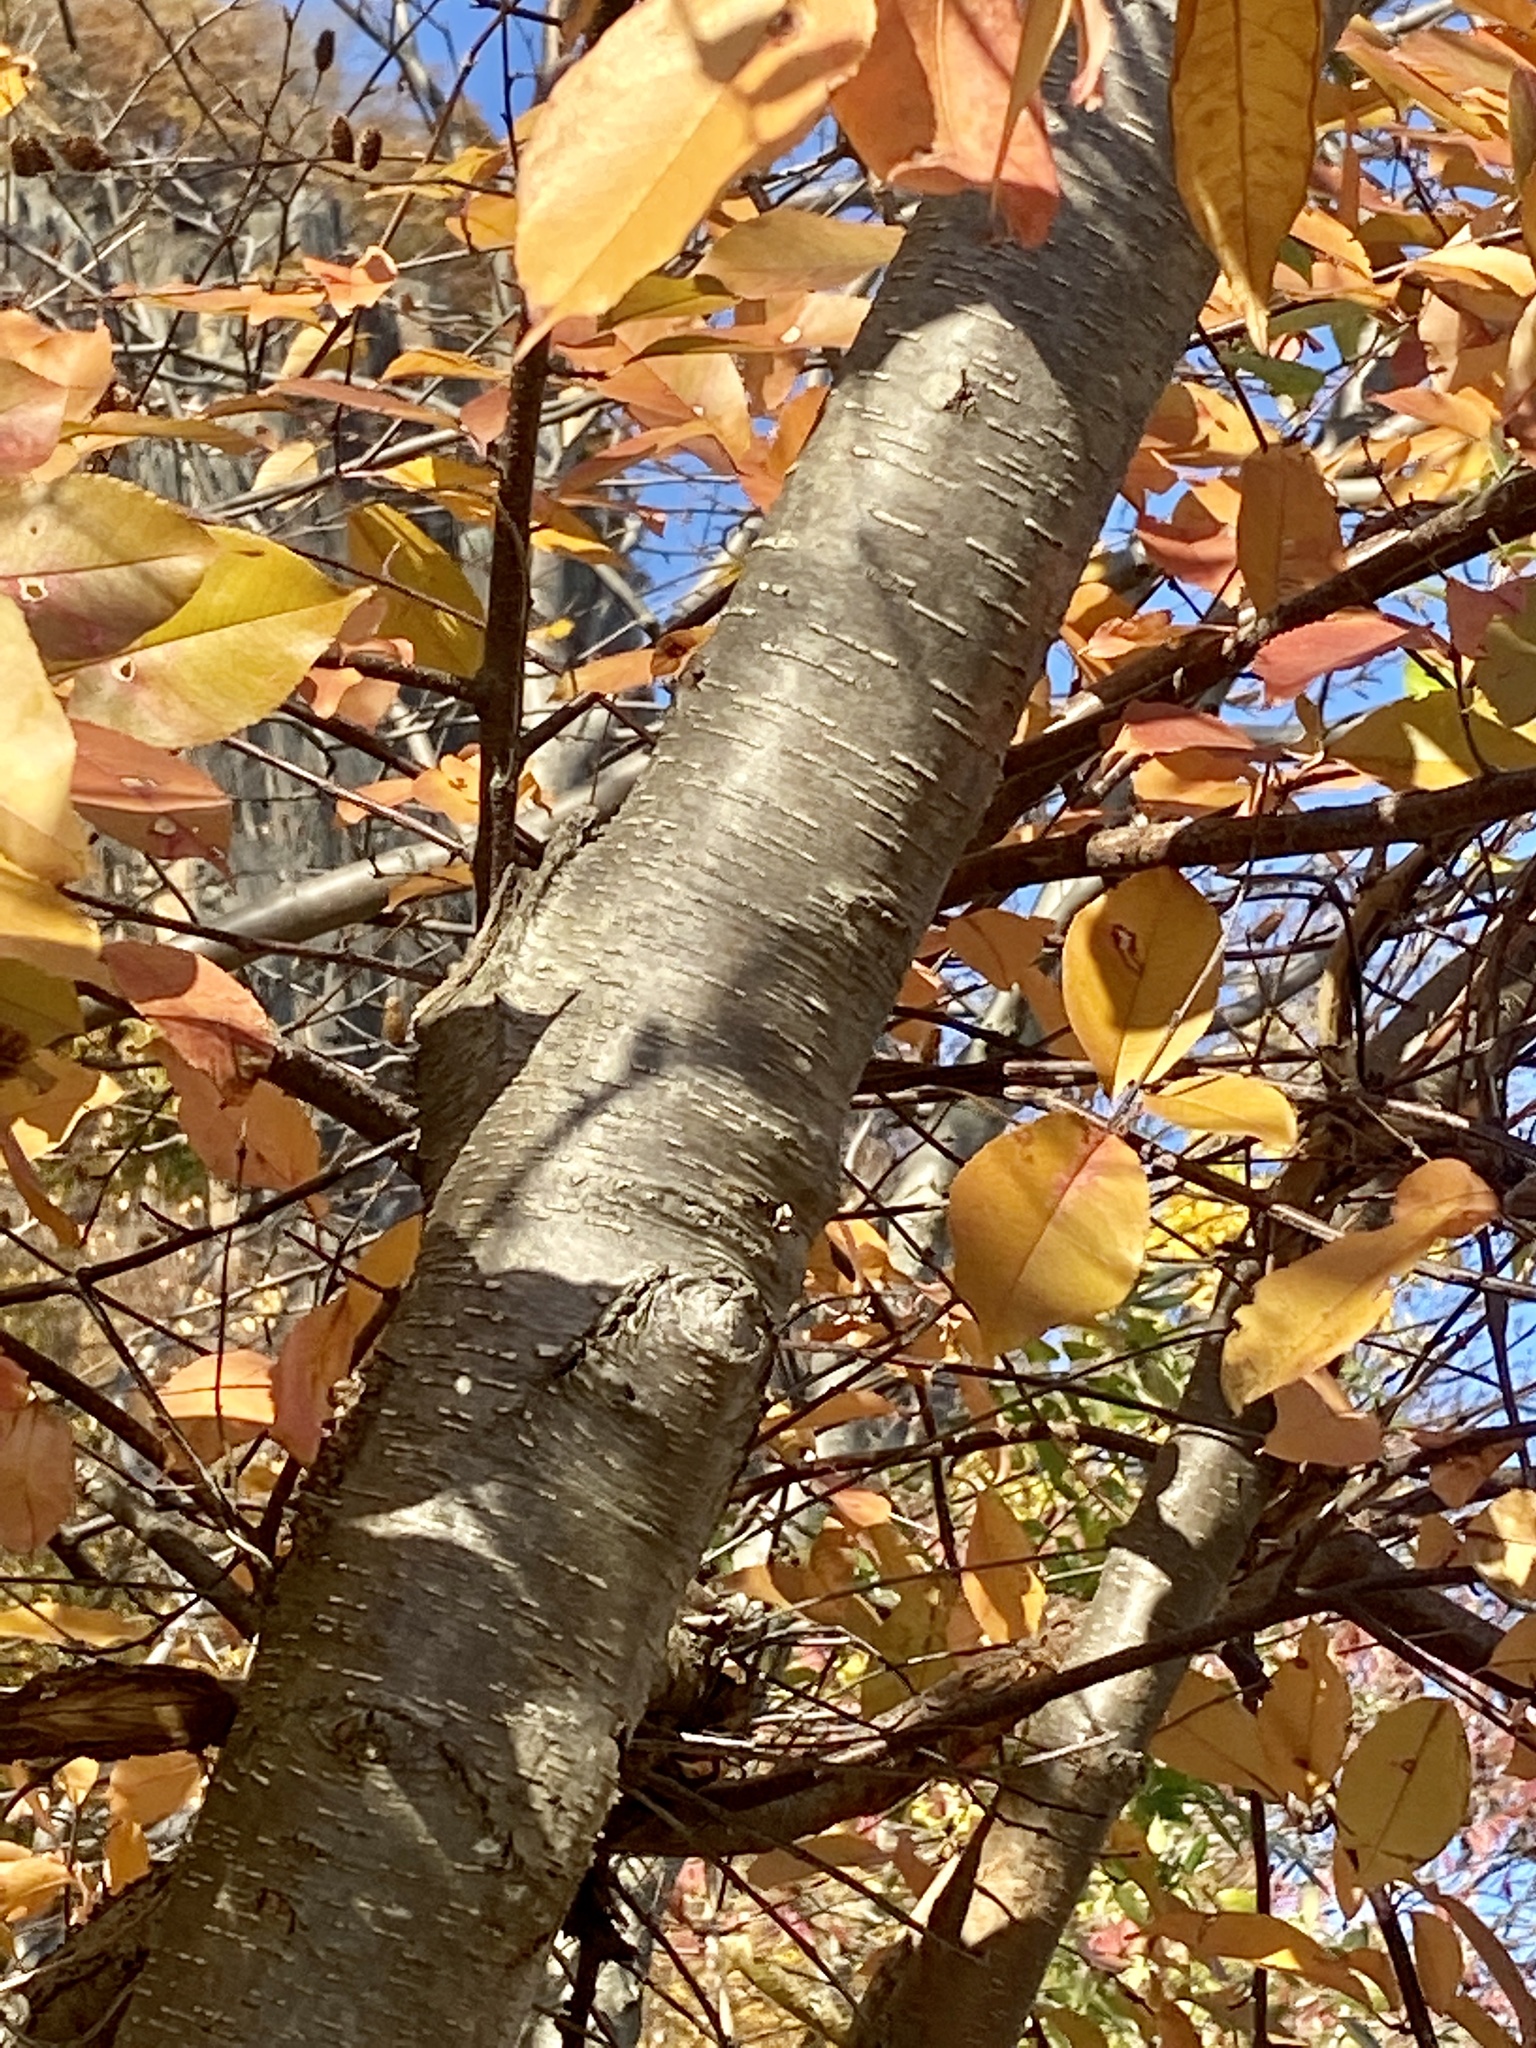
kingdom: Plantae
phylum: Tracheophyta
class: Magnoliopsida
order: Fagales
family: Betulaceae
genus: Betula
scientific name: Betula lenta
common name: Black birch
